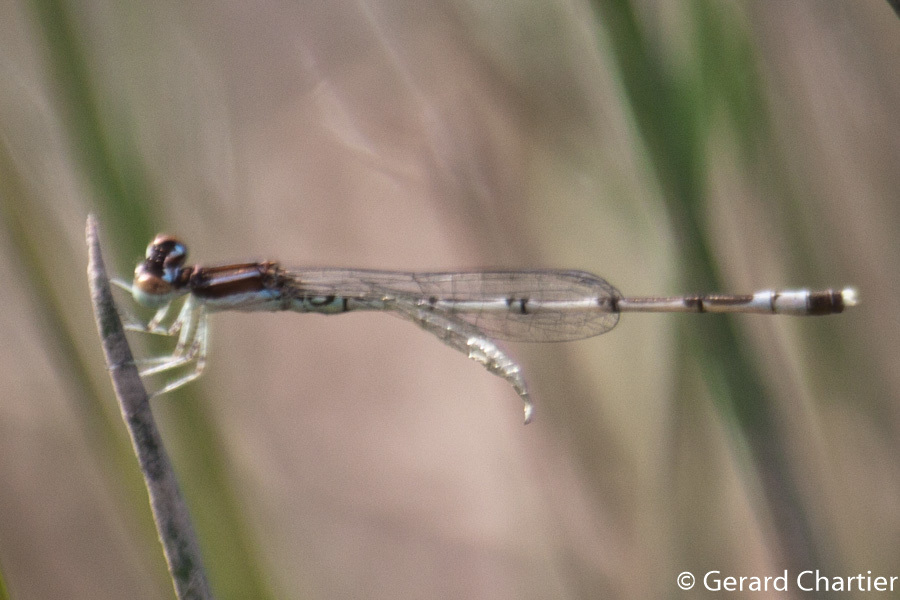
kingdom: Animalia
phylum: Arthropoda
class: Insecta
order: Odonata
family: Coenagrionidae
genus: Agriocnemis
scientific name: Agriocnemis nana
